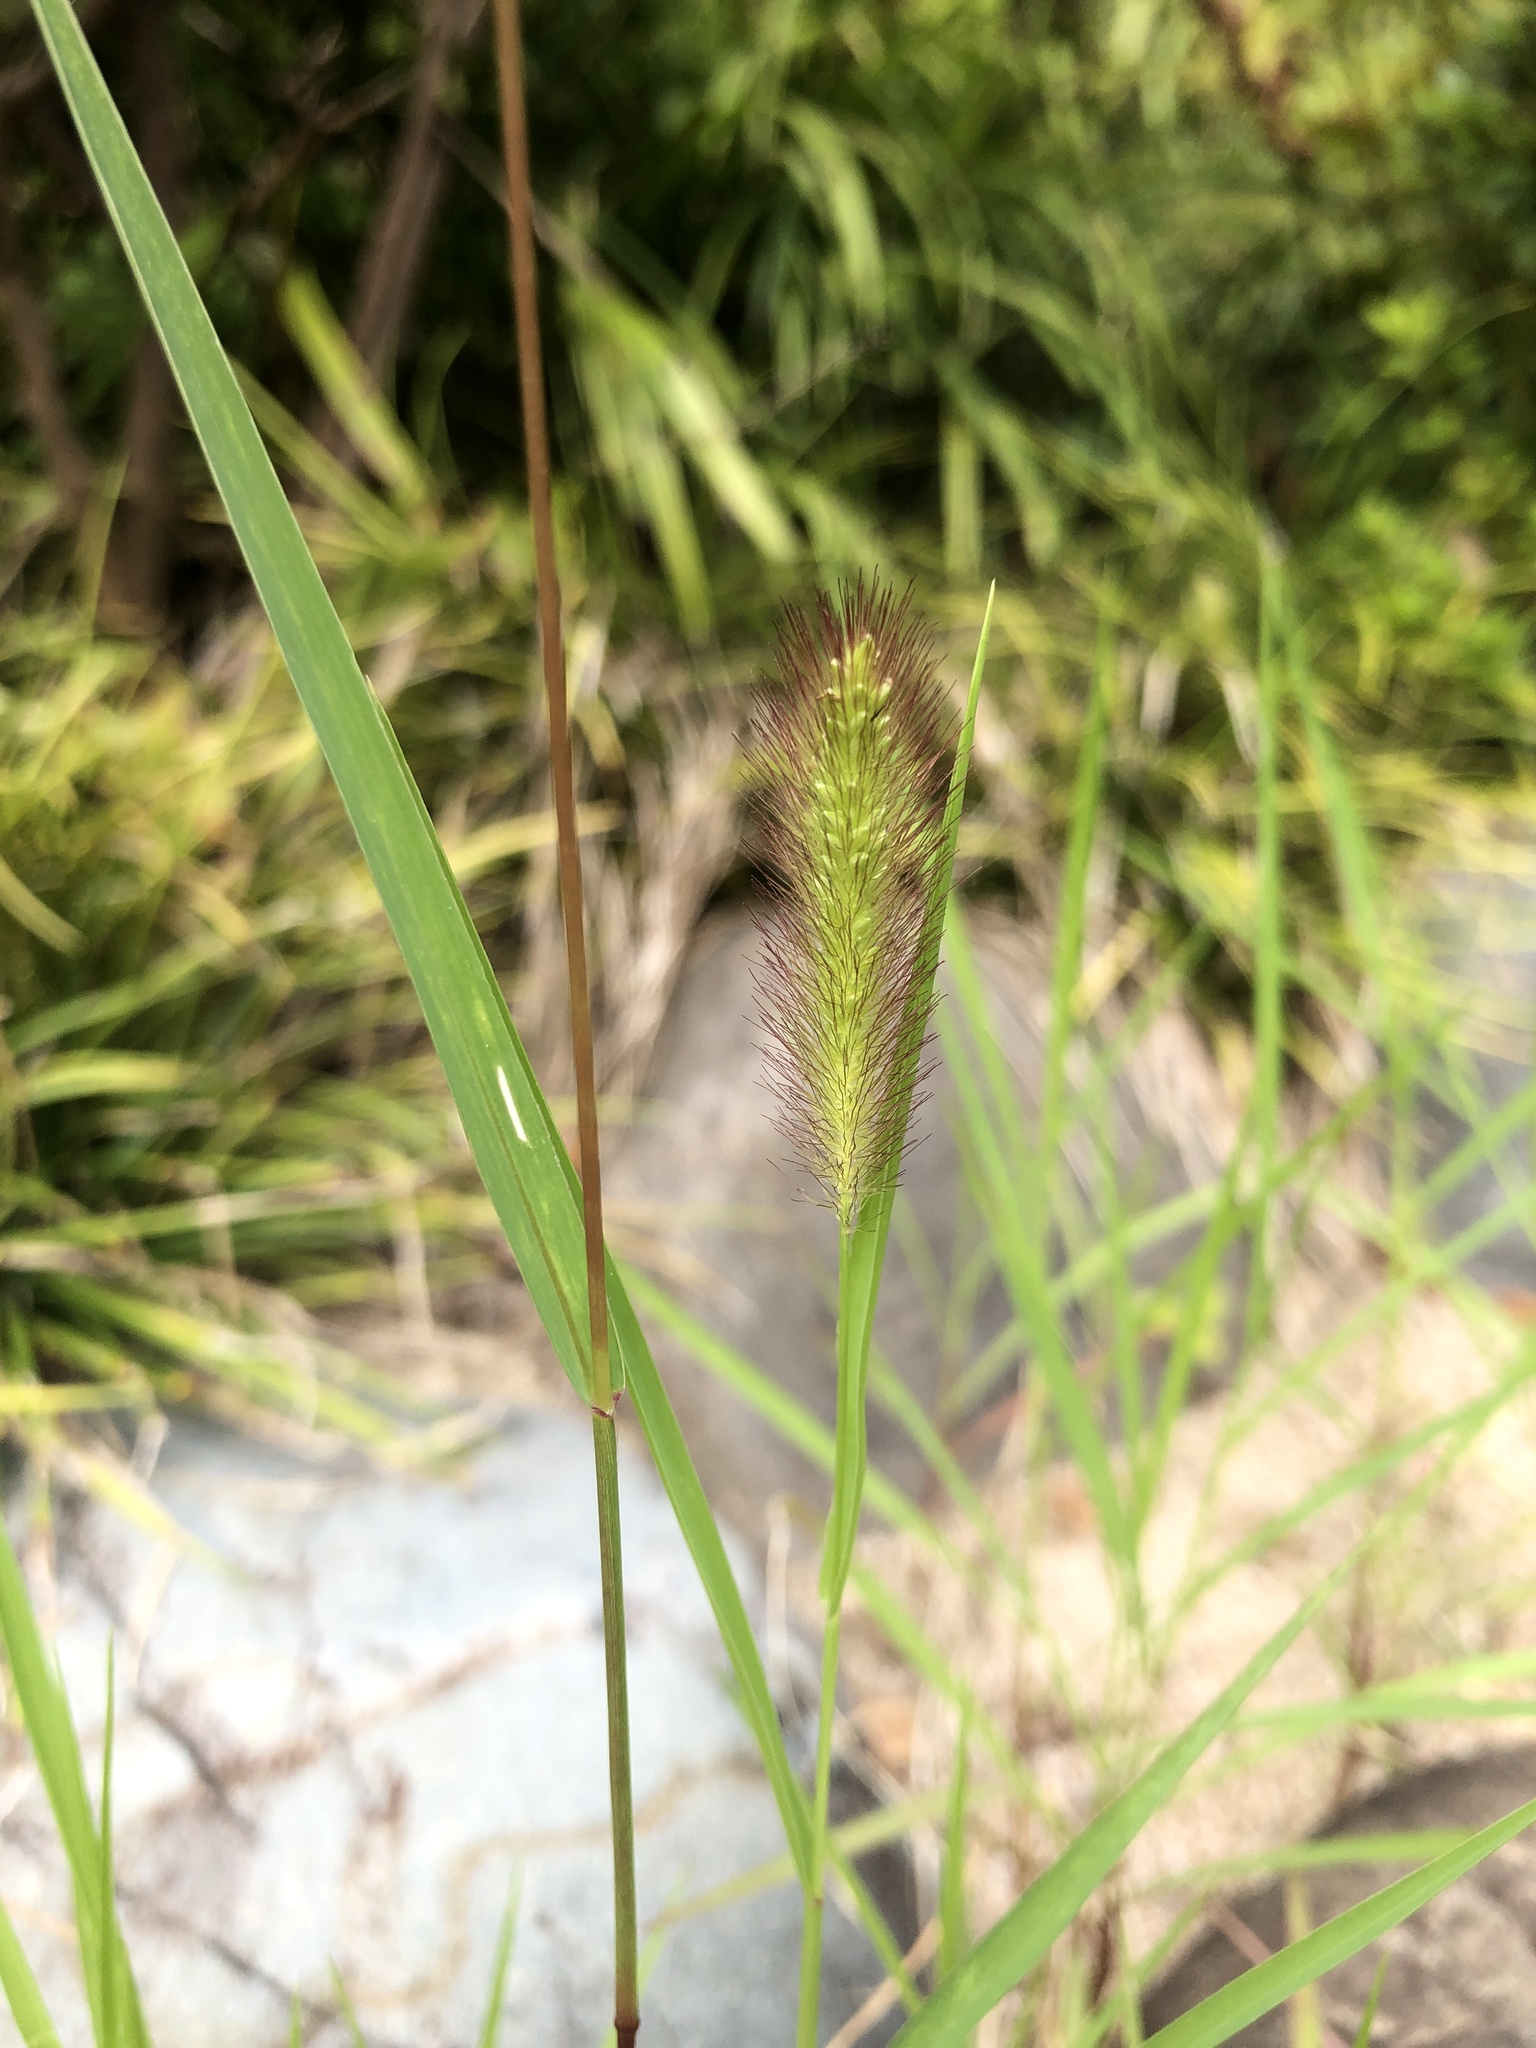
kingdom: Plantae
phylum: Tracheophyta
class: Liliopsida
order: Poales
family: Poaceae
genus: Setaria
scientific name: Setaria viridis
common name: Green bristlegrass
